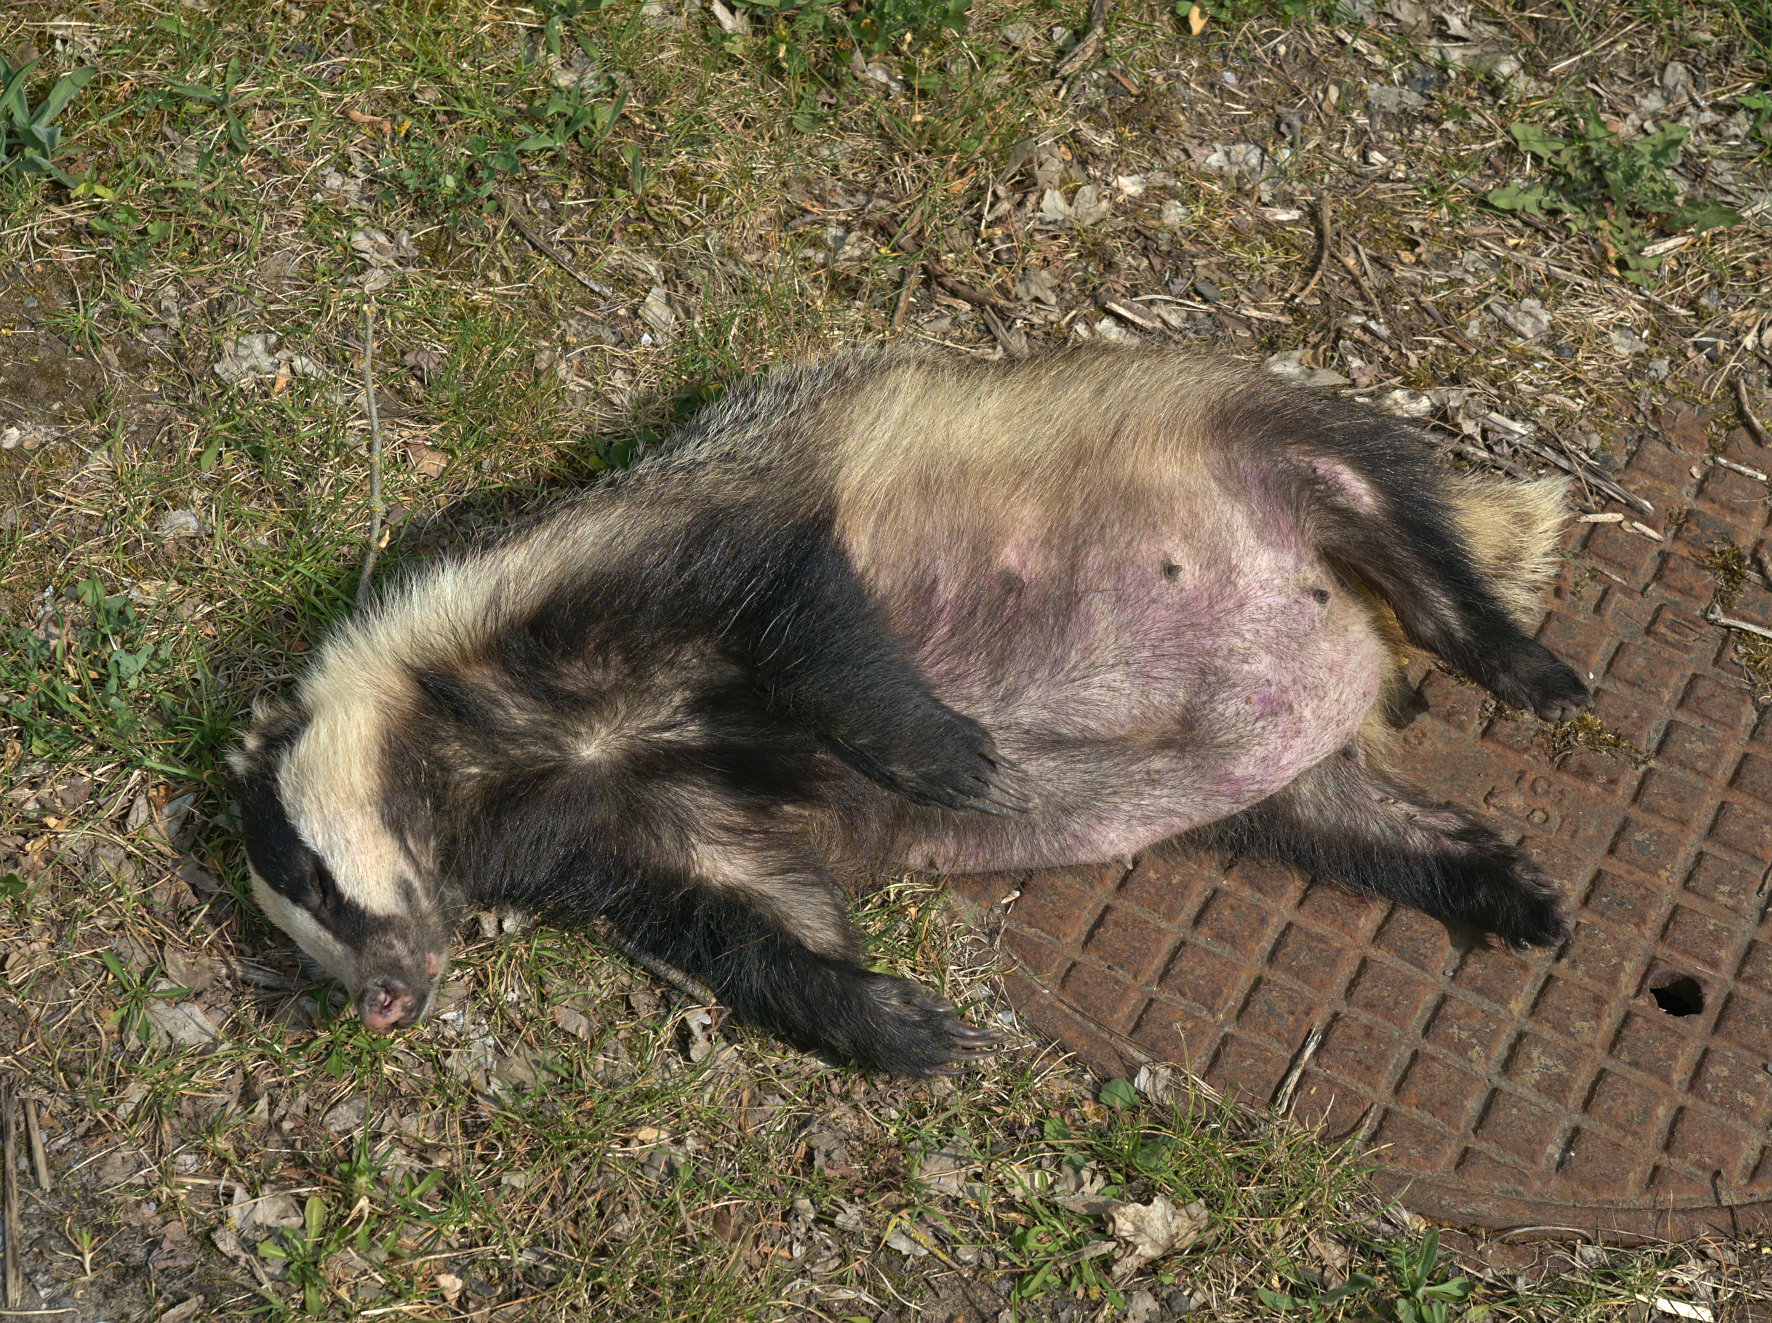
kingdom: Animalia
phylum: Chordata
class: Mammalia
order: Carnivora
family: Mustelidae
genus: Meles
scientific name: Meles meles
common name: Eurasian badger
